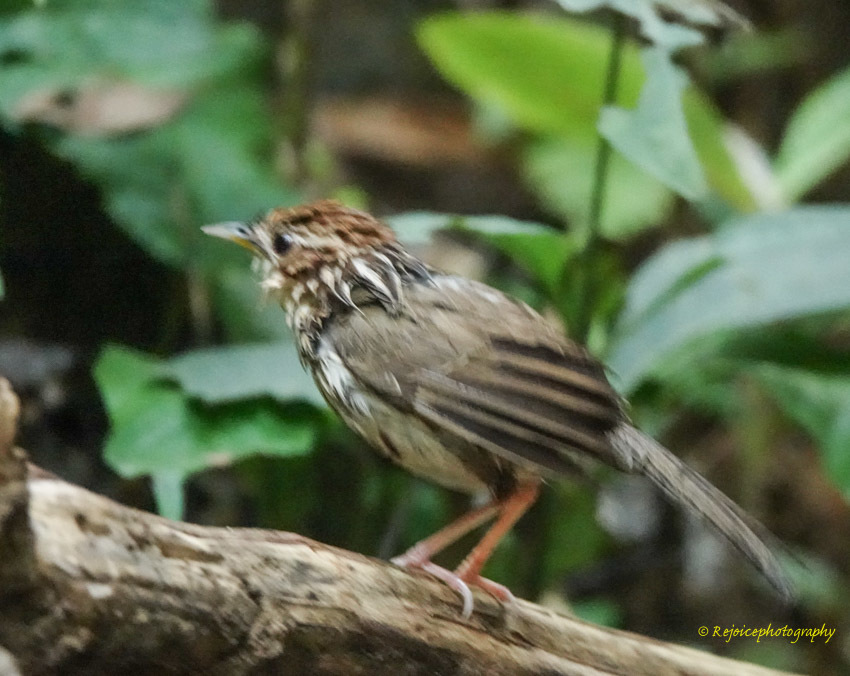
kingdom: Animalia
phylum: Chordata
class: Aves
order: Passeriformes
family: Pellorneidae
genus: Pellorneum
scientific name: Pellorneum ruficeps
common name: Puff-throated babbler
